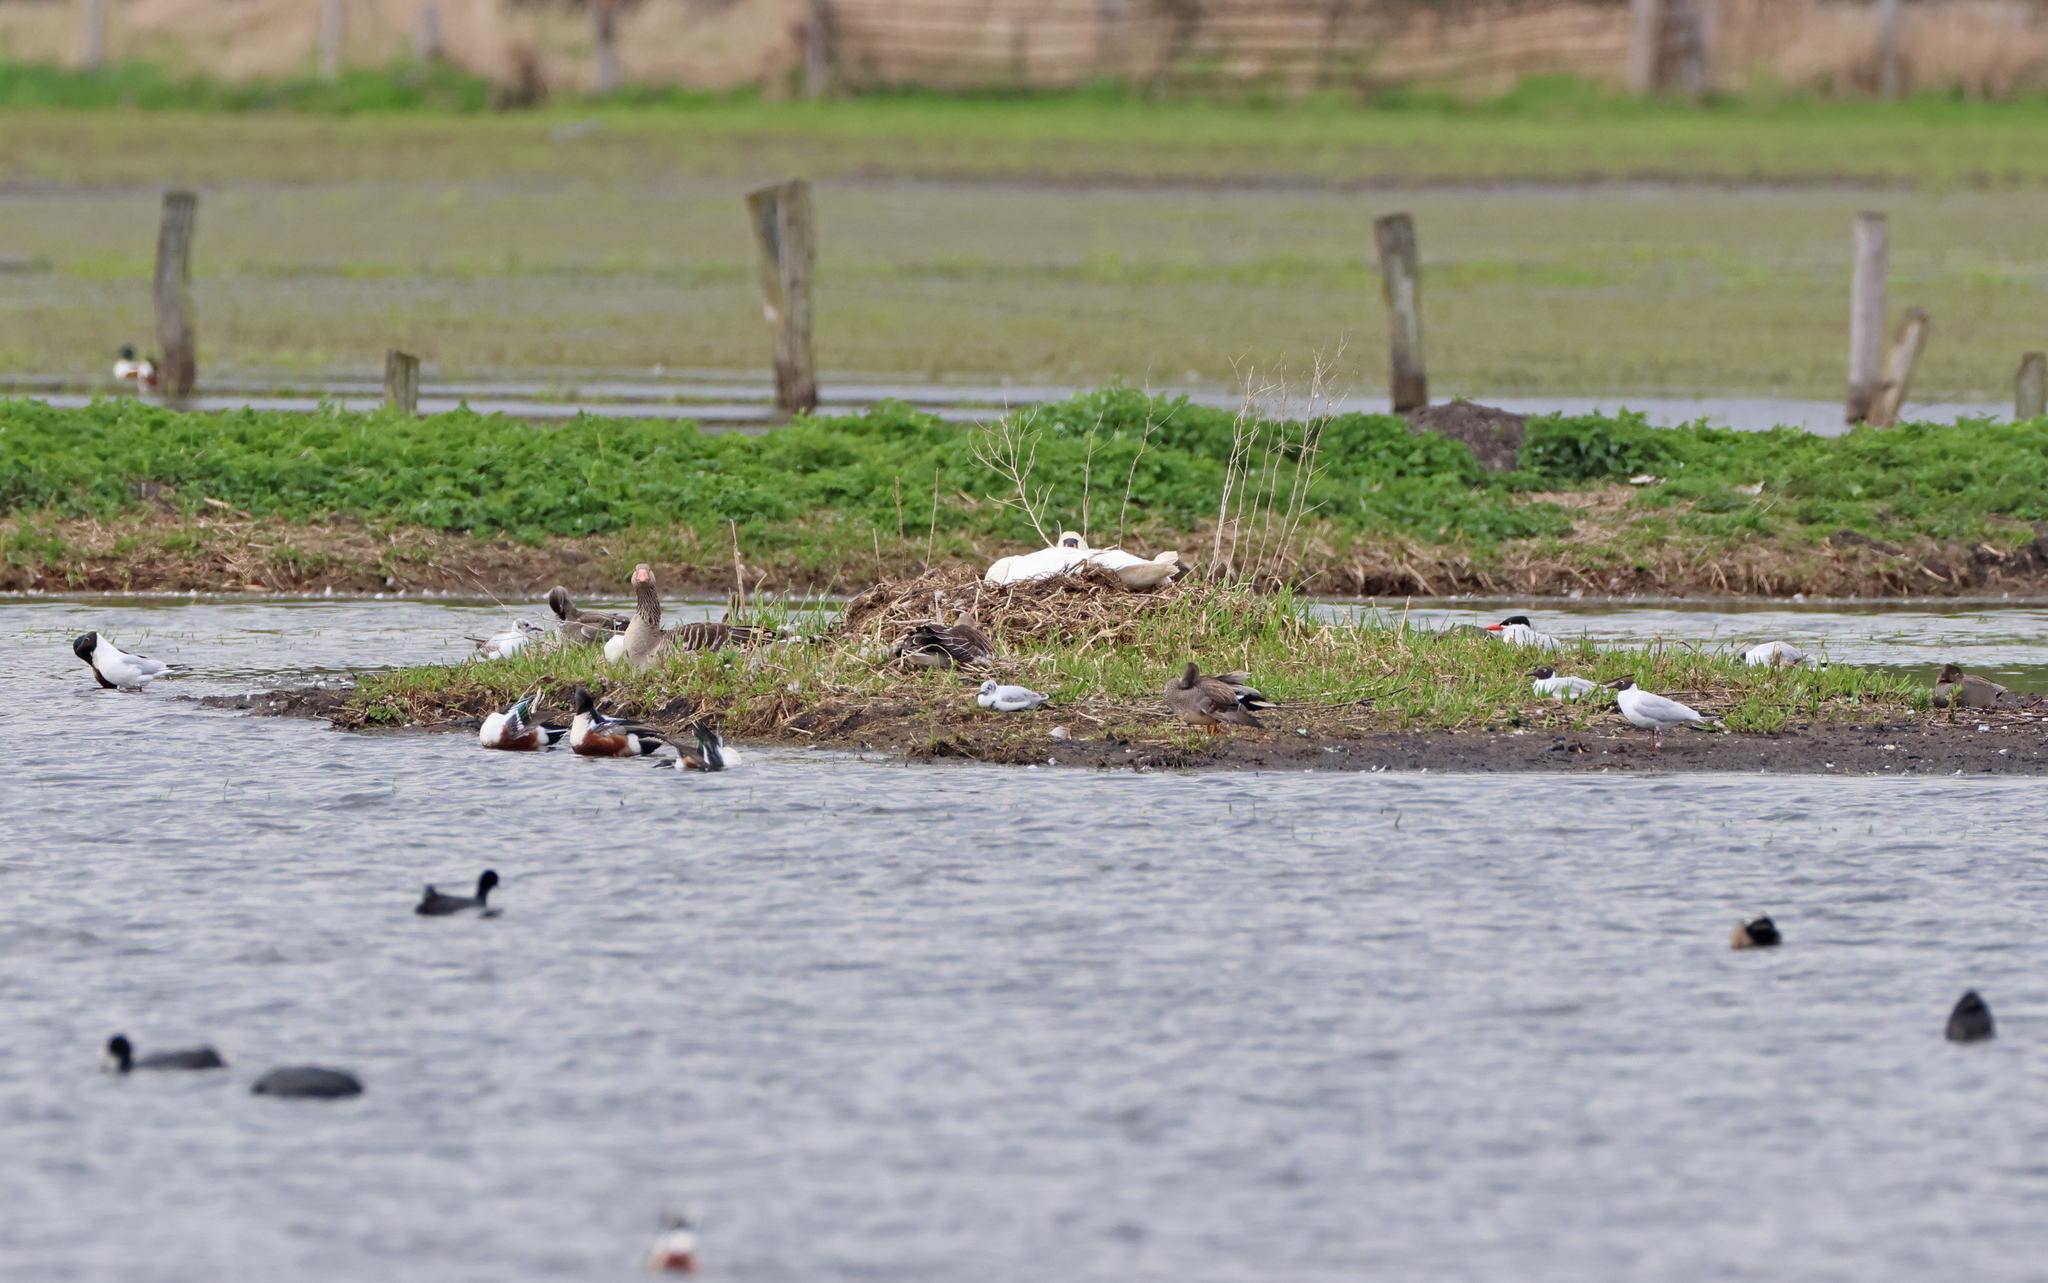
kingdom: Animalia
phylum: Chordata
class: Aves
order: Charadriiformes
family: Laridae
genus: Hydroprogne
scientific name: Hydroprogne caspia
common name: Caspian tern
